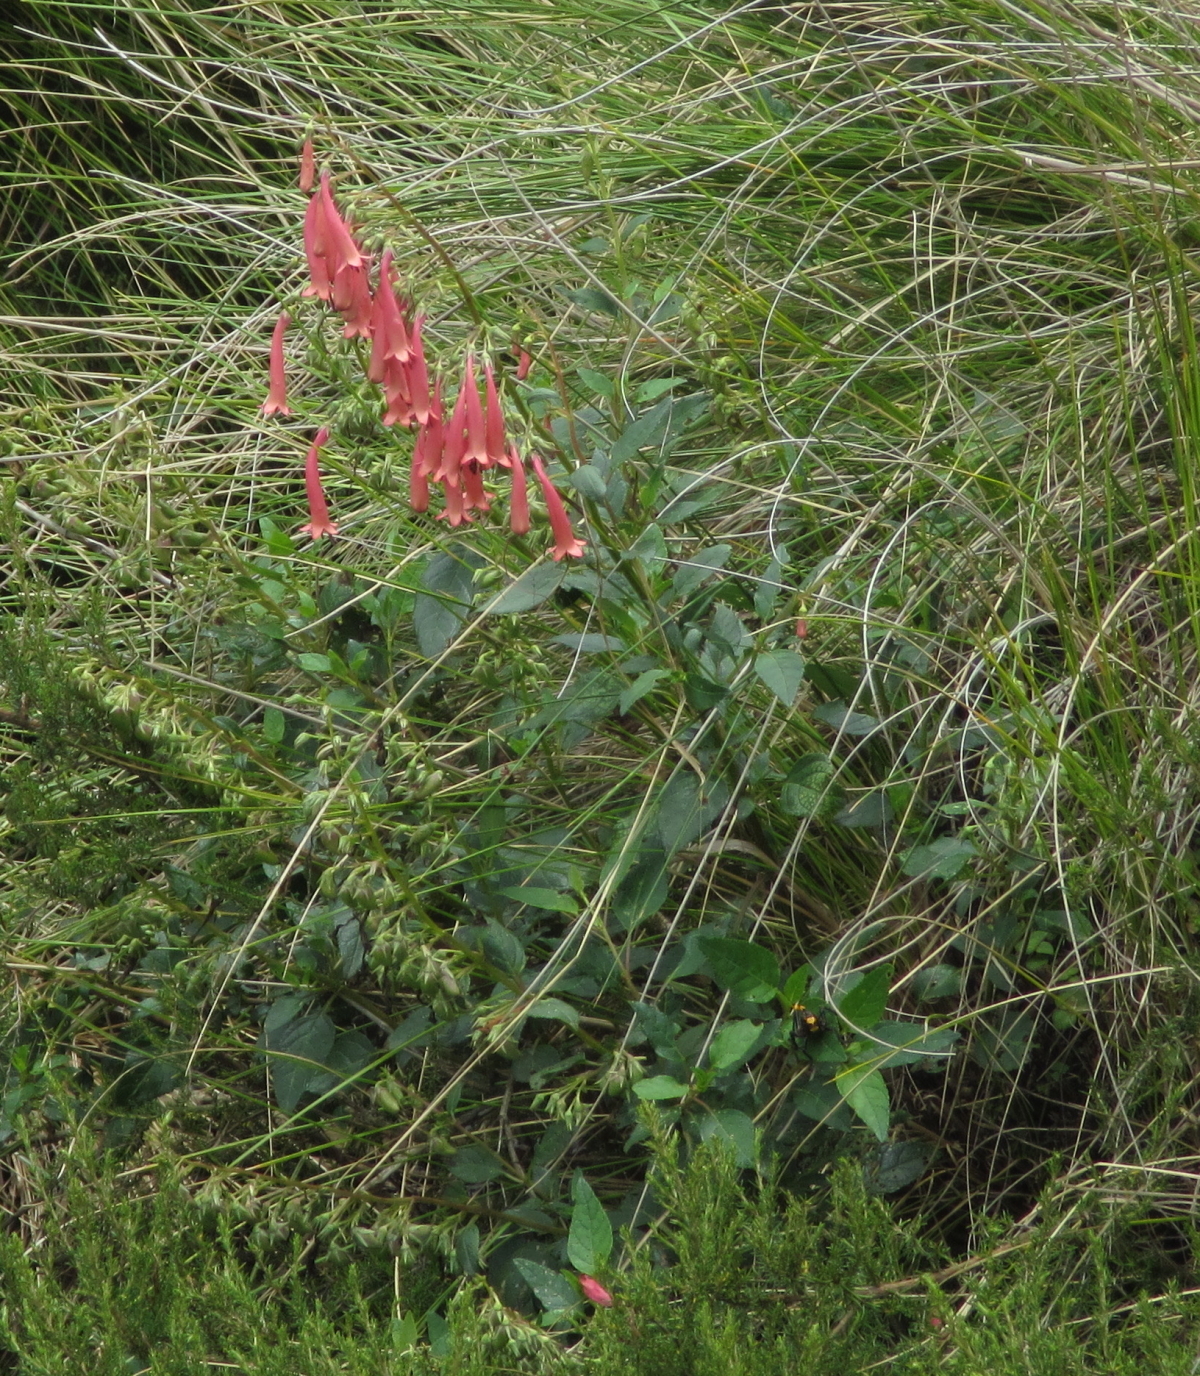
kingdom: Plantae
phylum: Tracheophyta
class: Magnoliopsida
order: Lamiales
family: Scrophulariaceae
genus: Phygelius
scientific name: Phygelius aequalis
